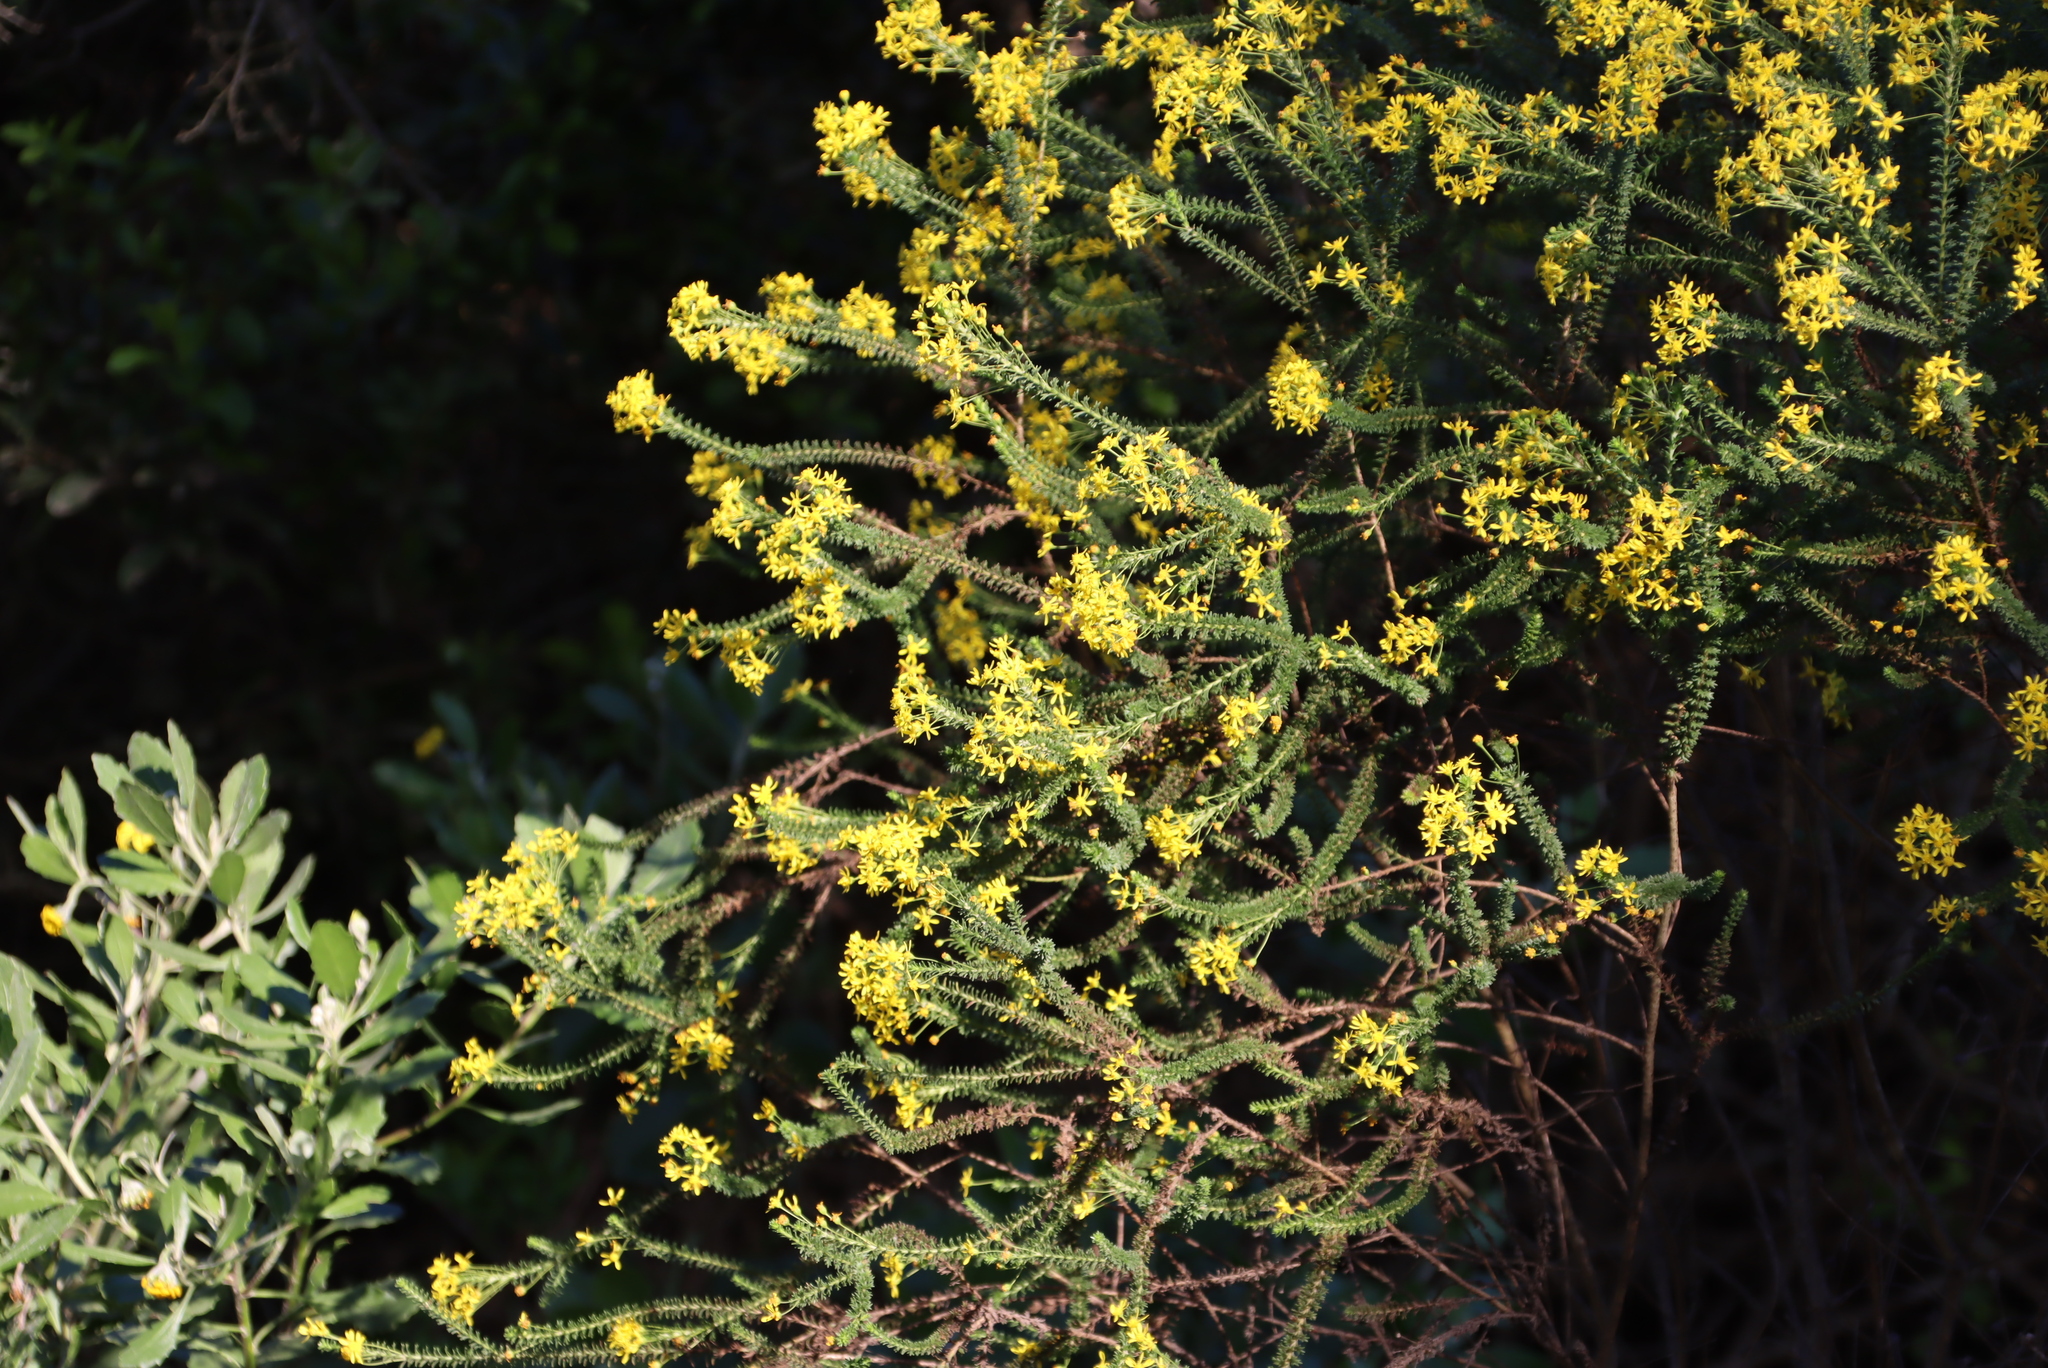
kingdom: Plantae
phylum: Tracheophyta
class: Magnoliopsida
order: Asterales
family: Asteraceae
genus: Euryops
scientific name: Euryops virgineus
